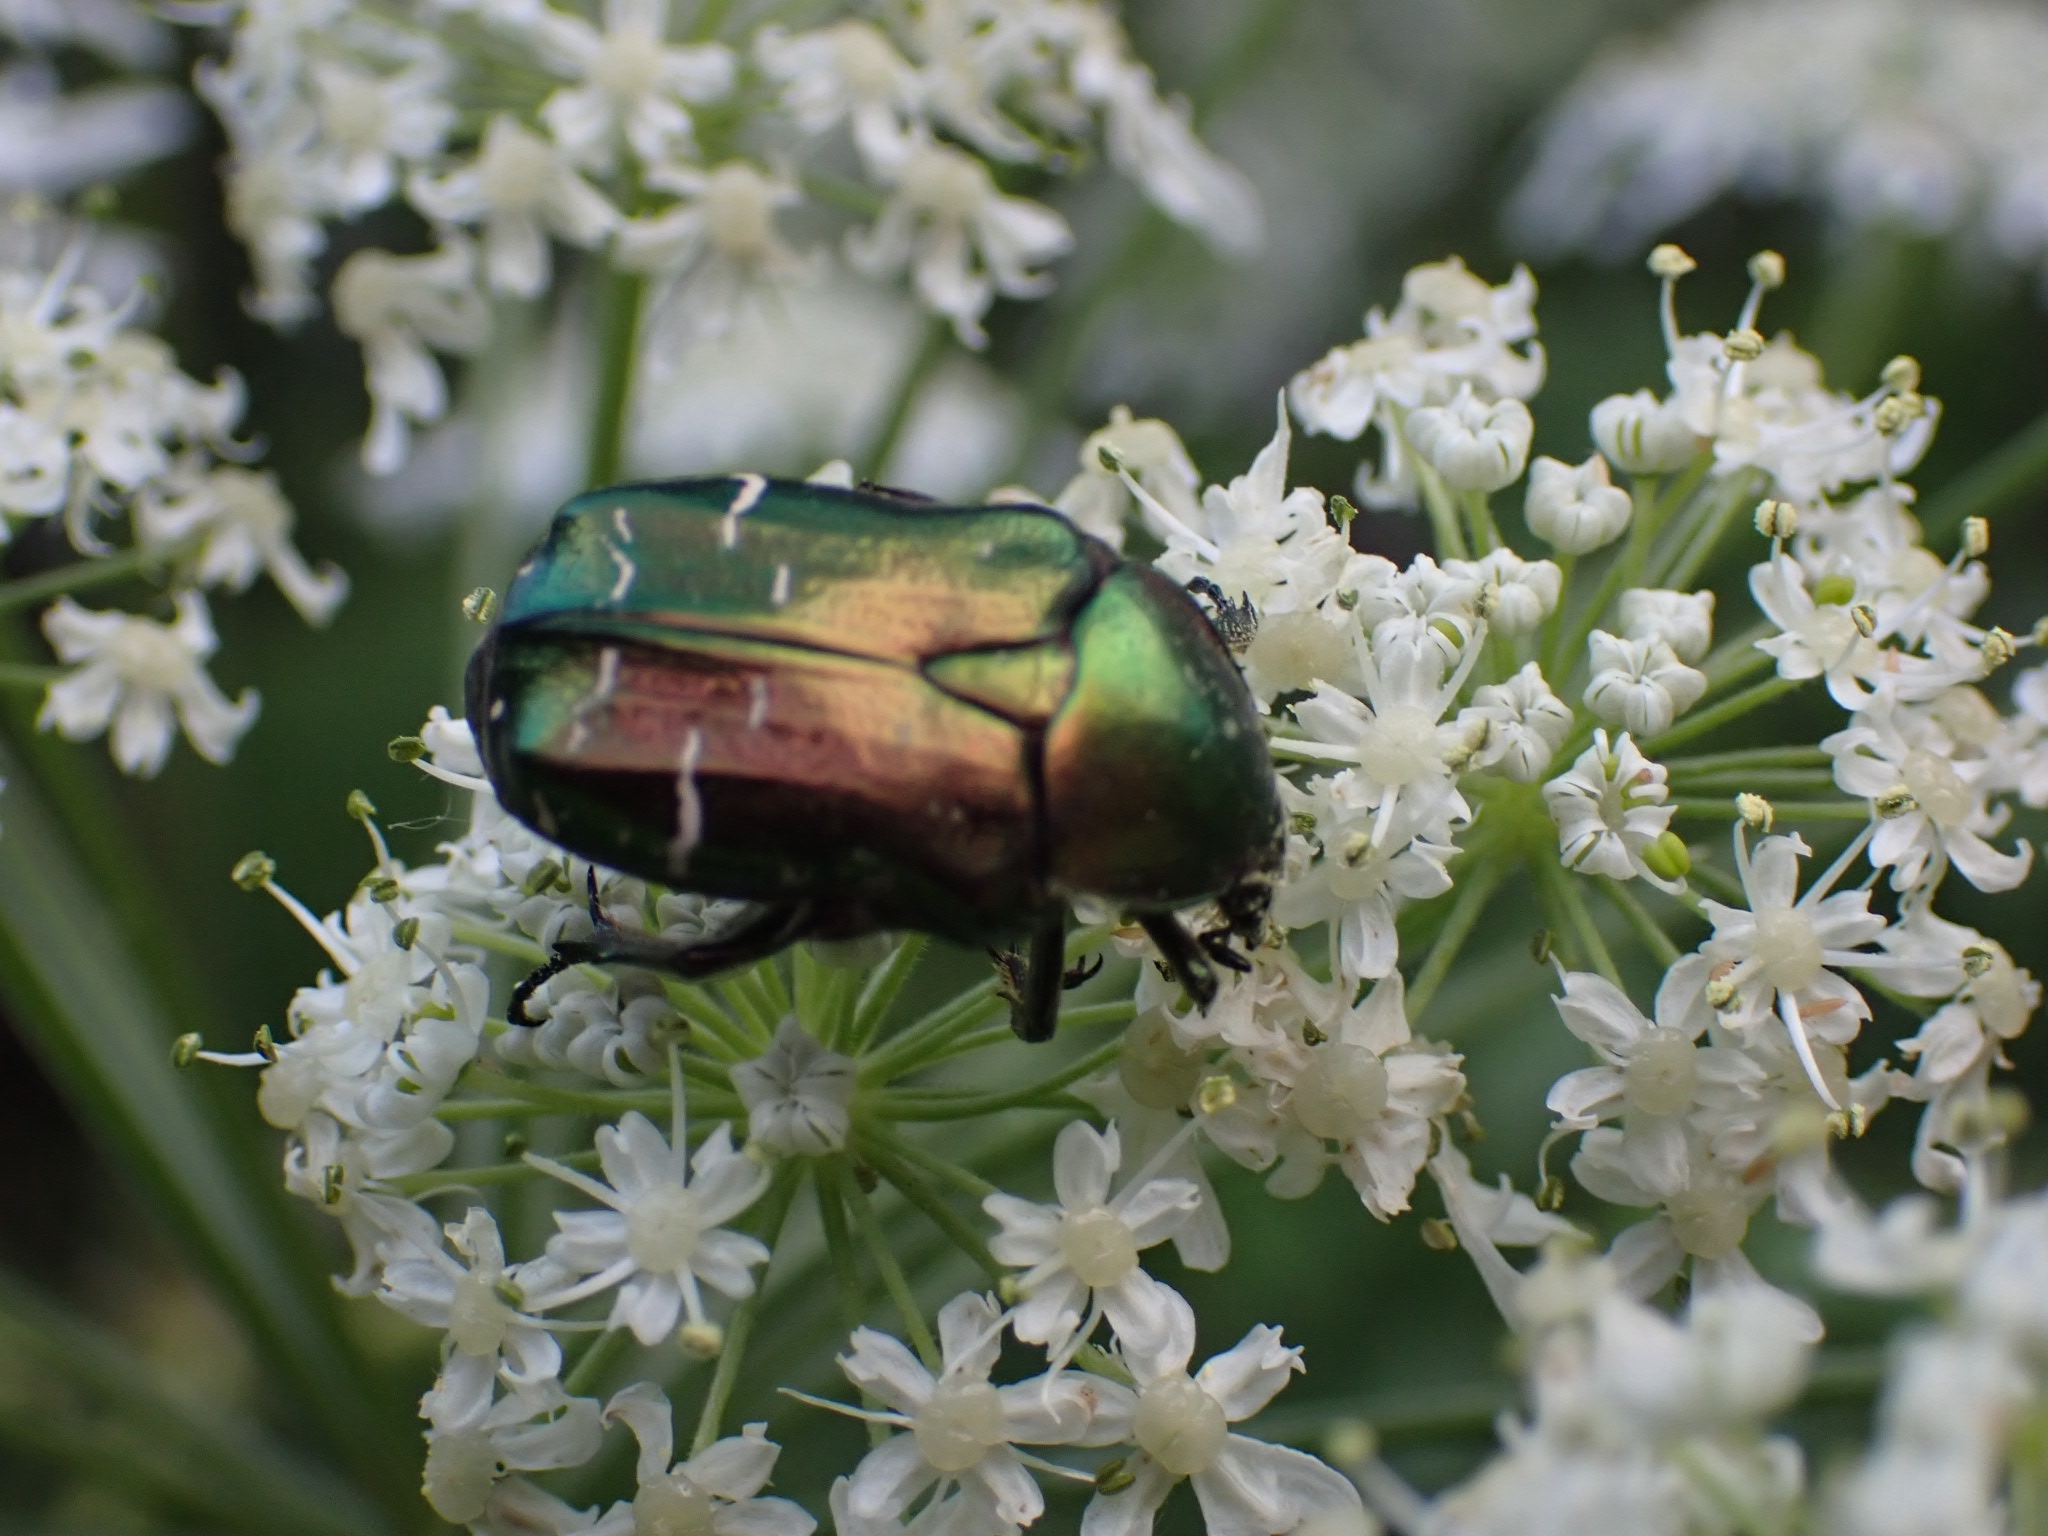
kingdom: Animalia
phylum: Arthropoda
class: Insecta
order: Coleoptera
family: Scarabaeidae
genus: Cetonia
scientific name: Cetonia aurata
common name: Rose chafer
